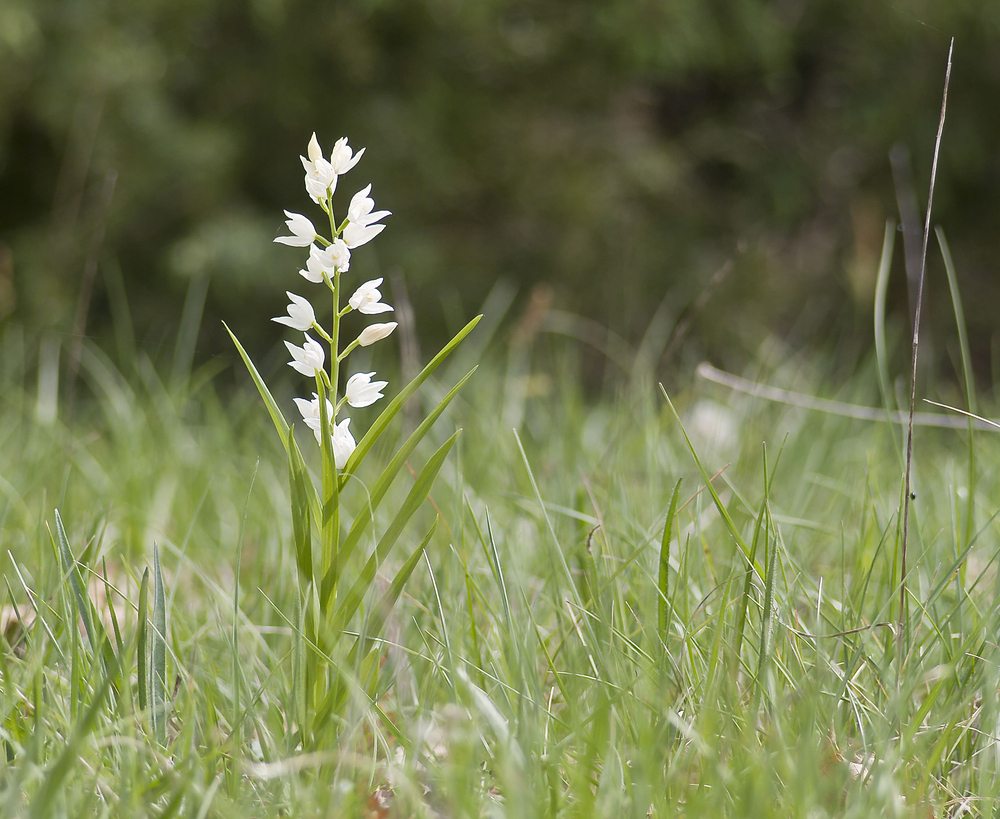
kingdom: Plantae
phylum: Tracheophyta
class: Liliopsida
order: Asparagales
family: Orchidaceae
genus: Cephalanthera
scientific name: Cephalanthera longifolia
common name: Narrow-leaved helleborine
